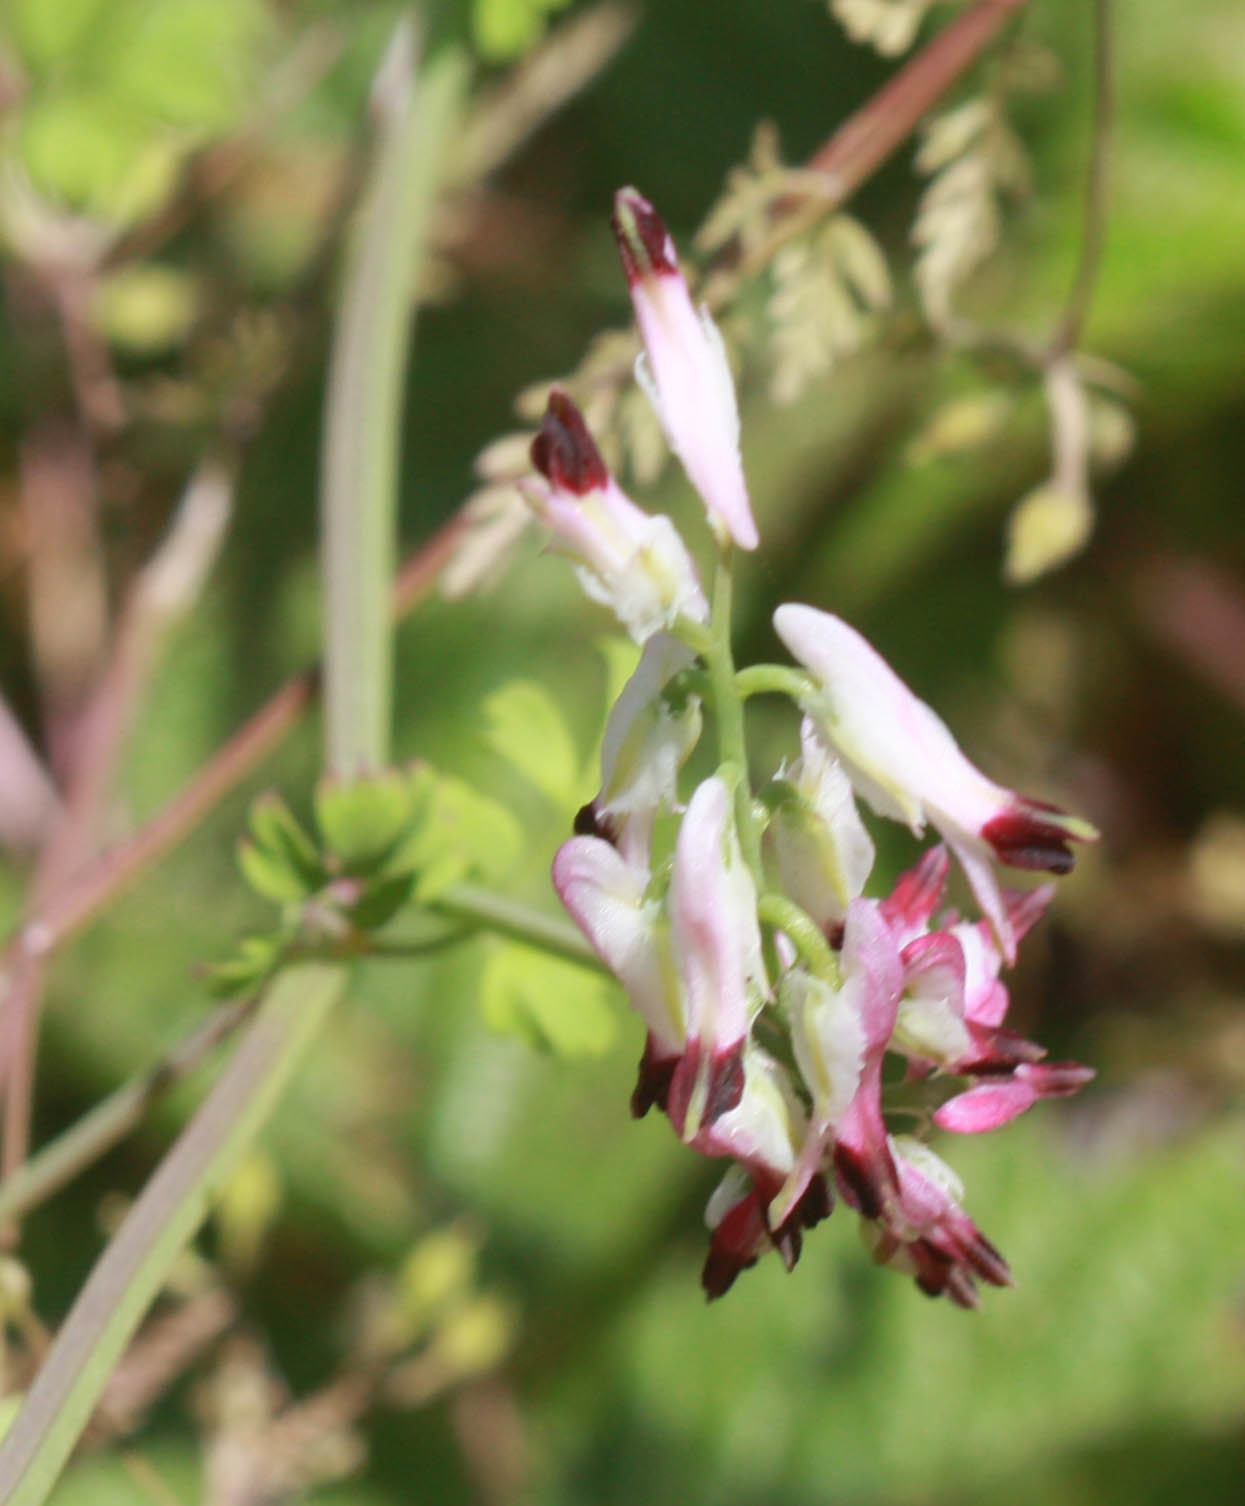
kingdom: Plantae
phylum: Tracheophyta
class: Magnoliopsida
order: Ranunculales
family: Papaveraceae
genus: Fumaria
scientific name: Fumaria capreolata
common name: White ramping-fumitory
